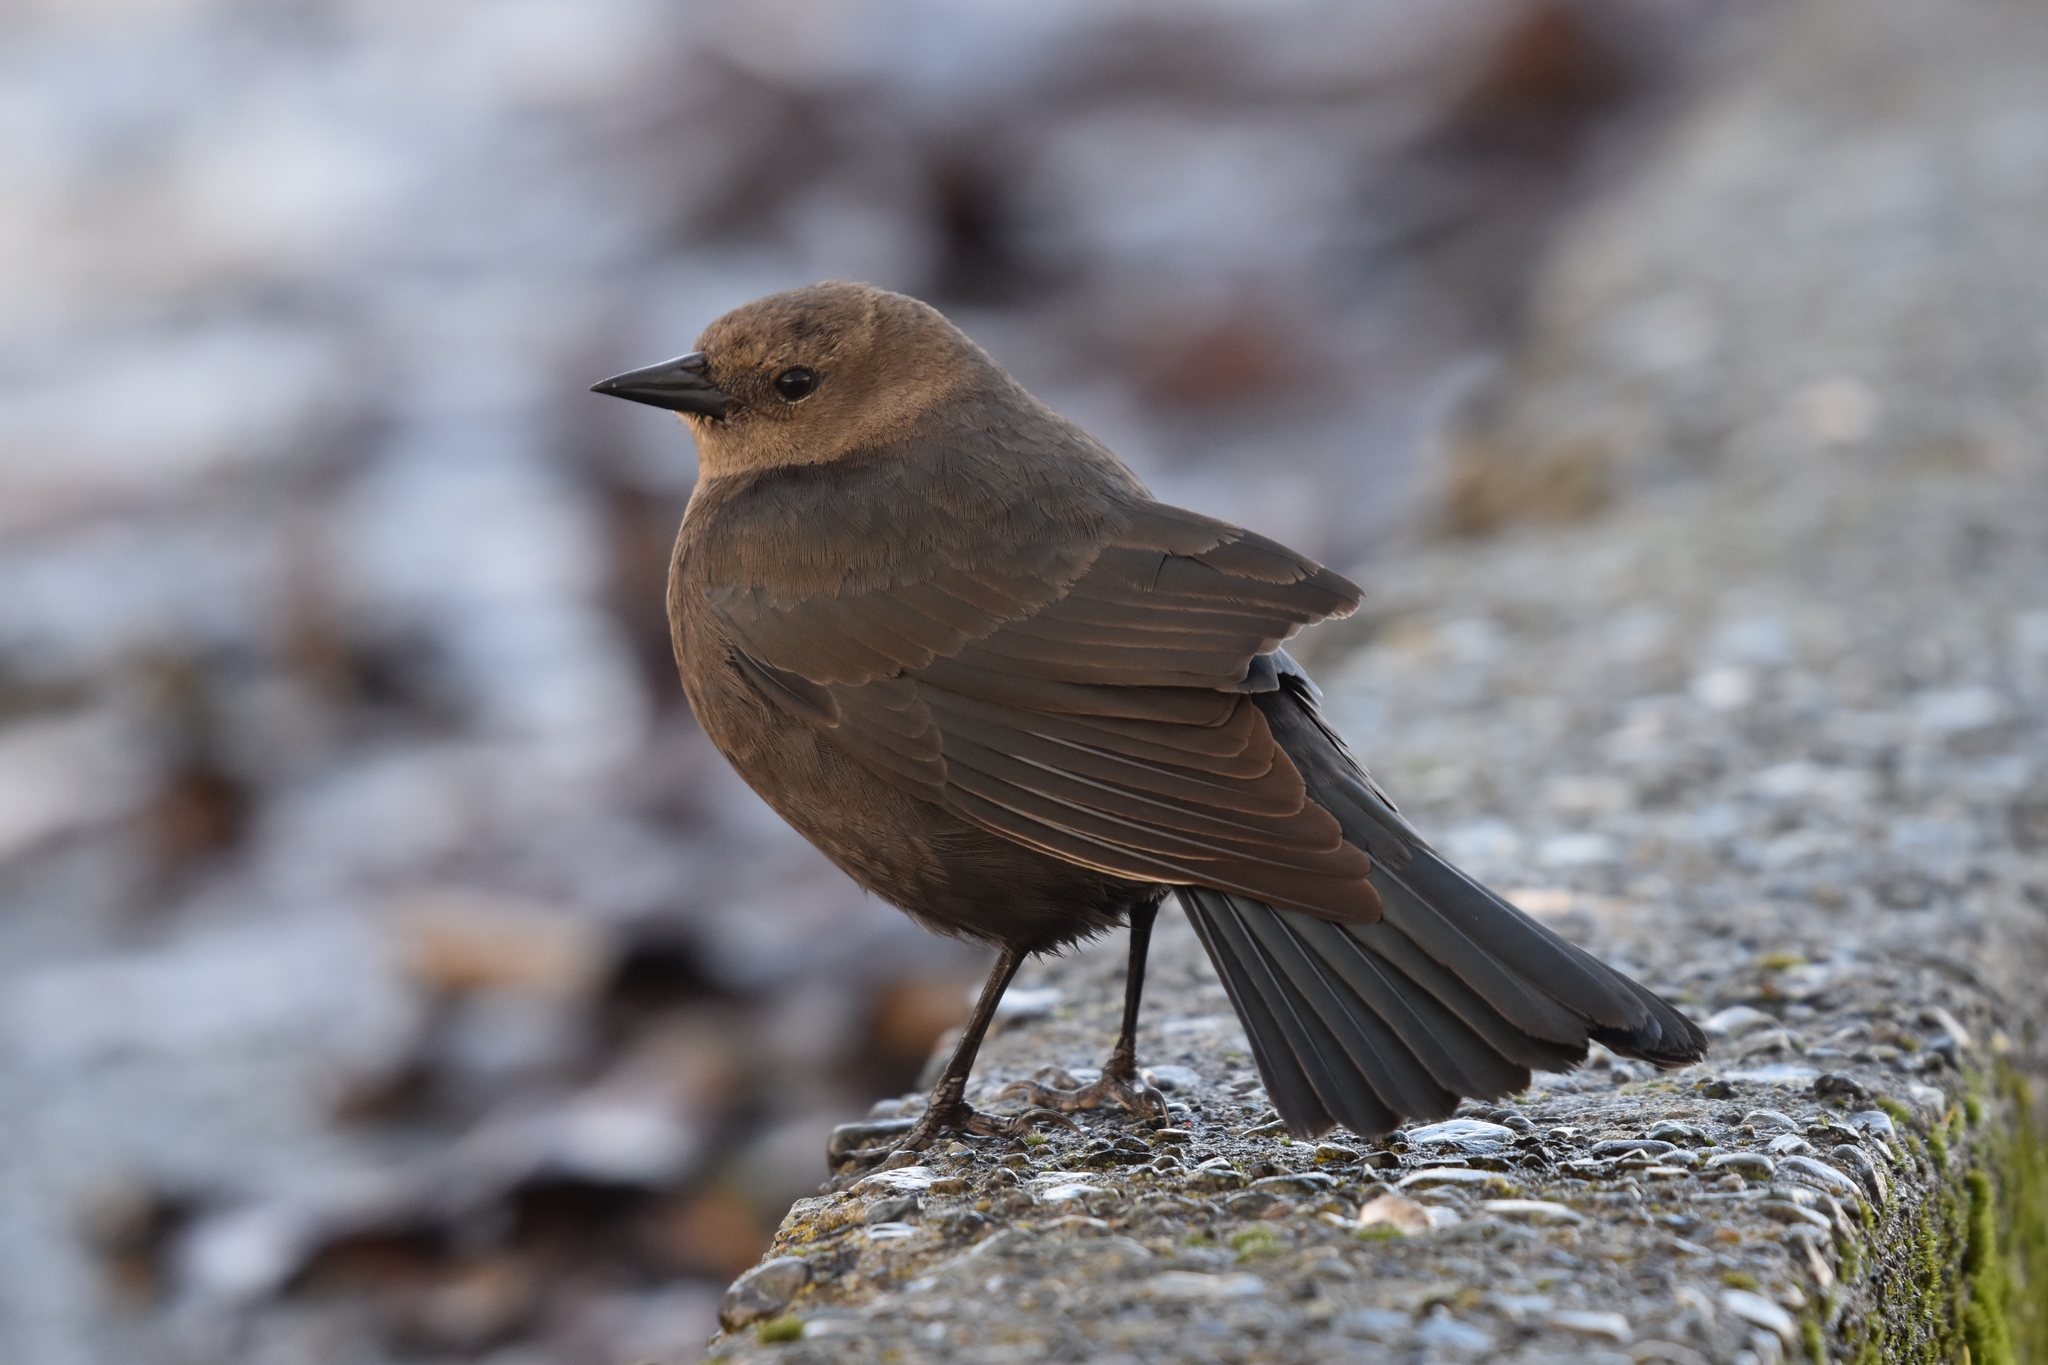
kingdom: Animalia
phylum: Chordata
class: Aves
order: Passeriformes
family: Icteridae
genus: Euphagus
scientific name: Euphagus cyanocephalus
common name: Brewer's blackbird
